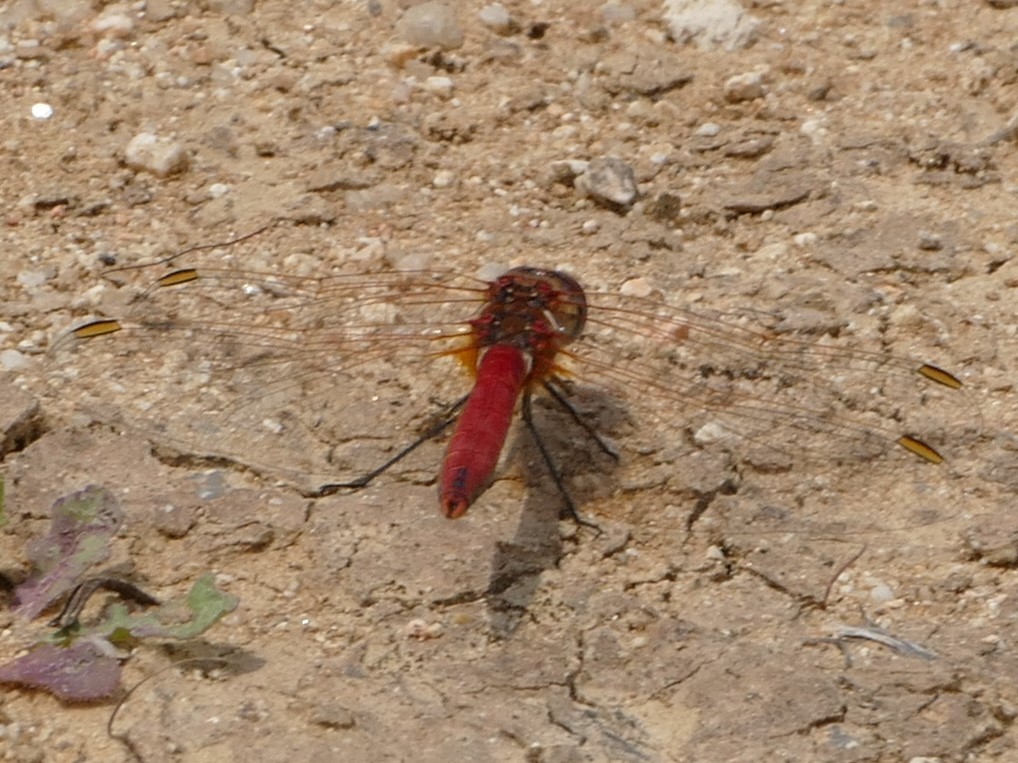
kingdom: Animalia
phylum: Arthropoda
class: Insecta
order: Odonata
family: Libellulidae
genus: Sympetrum
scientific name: Sympetrum fonscolombii
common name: Red-veined darter
